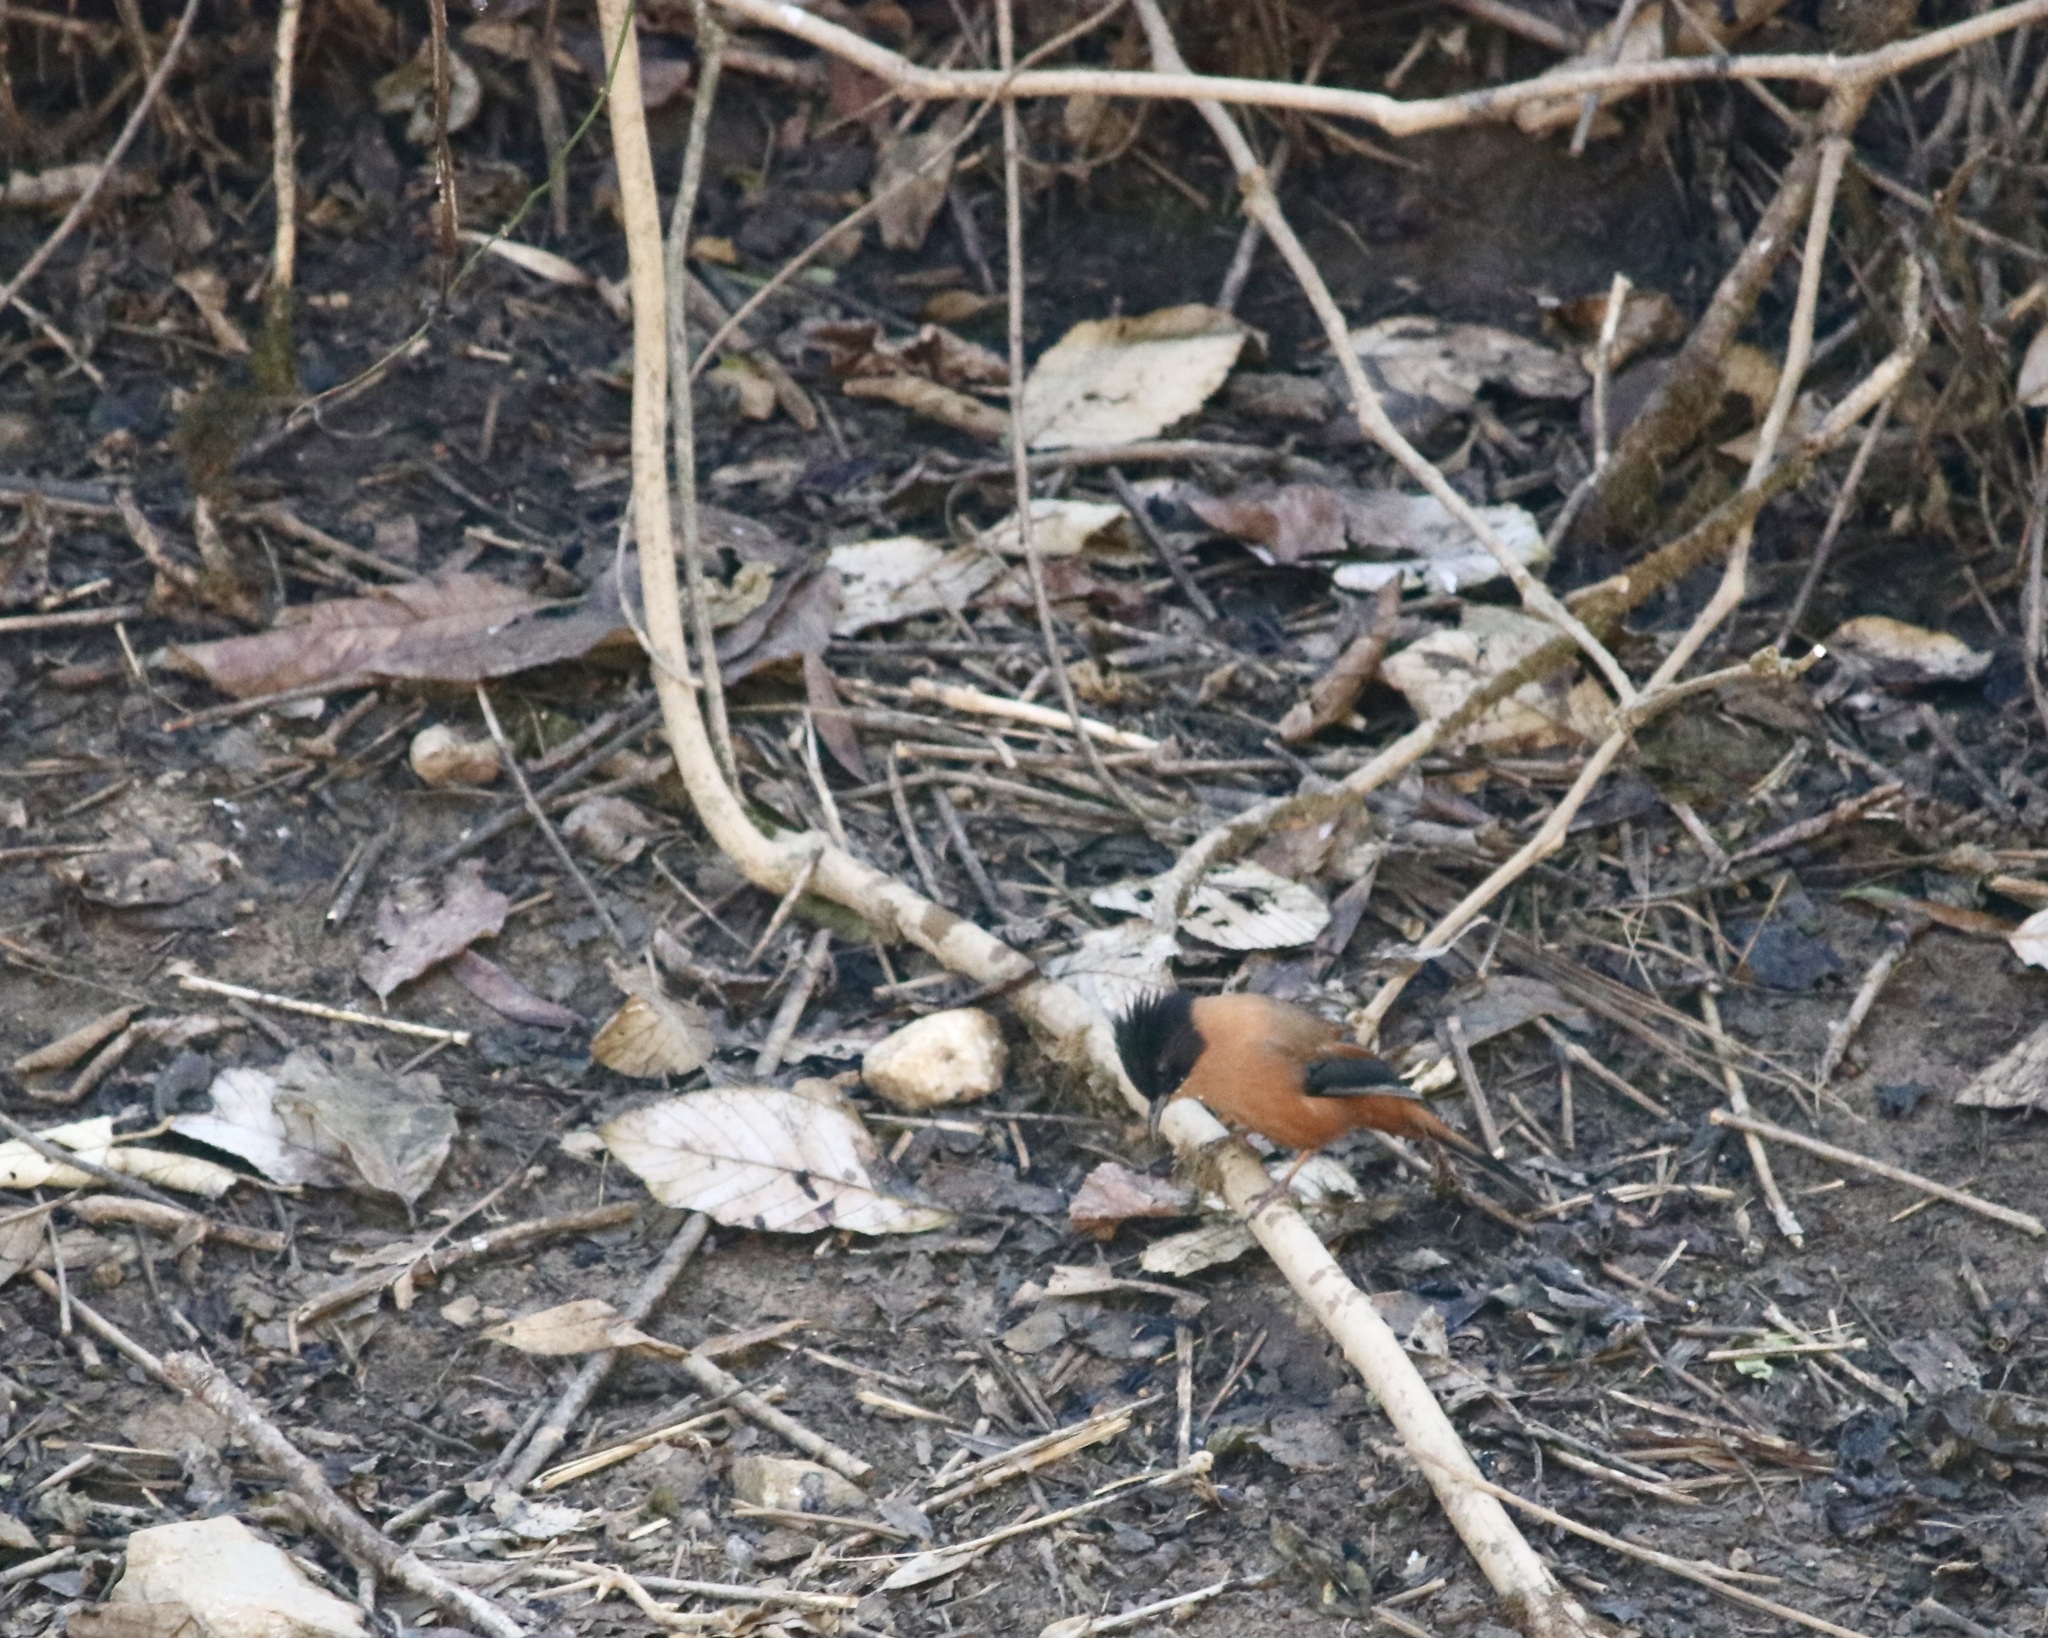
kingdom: Animalia
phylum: Chordata
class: Aves
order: Passeriformes
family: Leiothrichidae
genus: Heterophasia
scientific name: Heterophasia capistrata
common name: Rufous sibia
